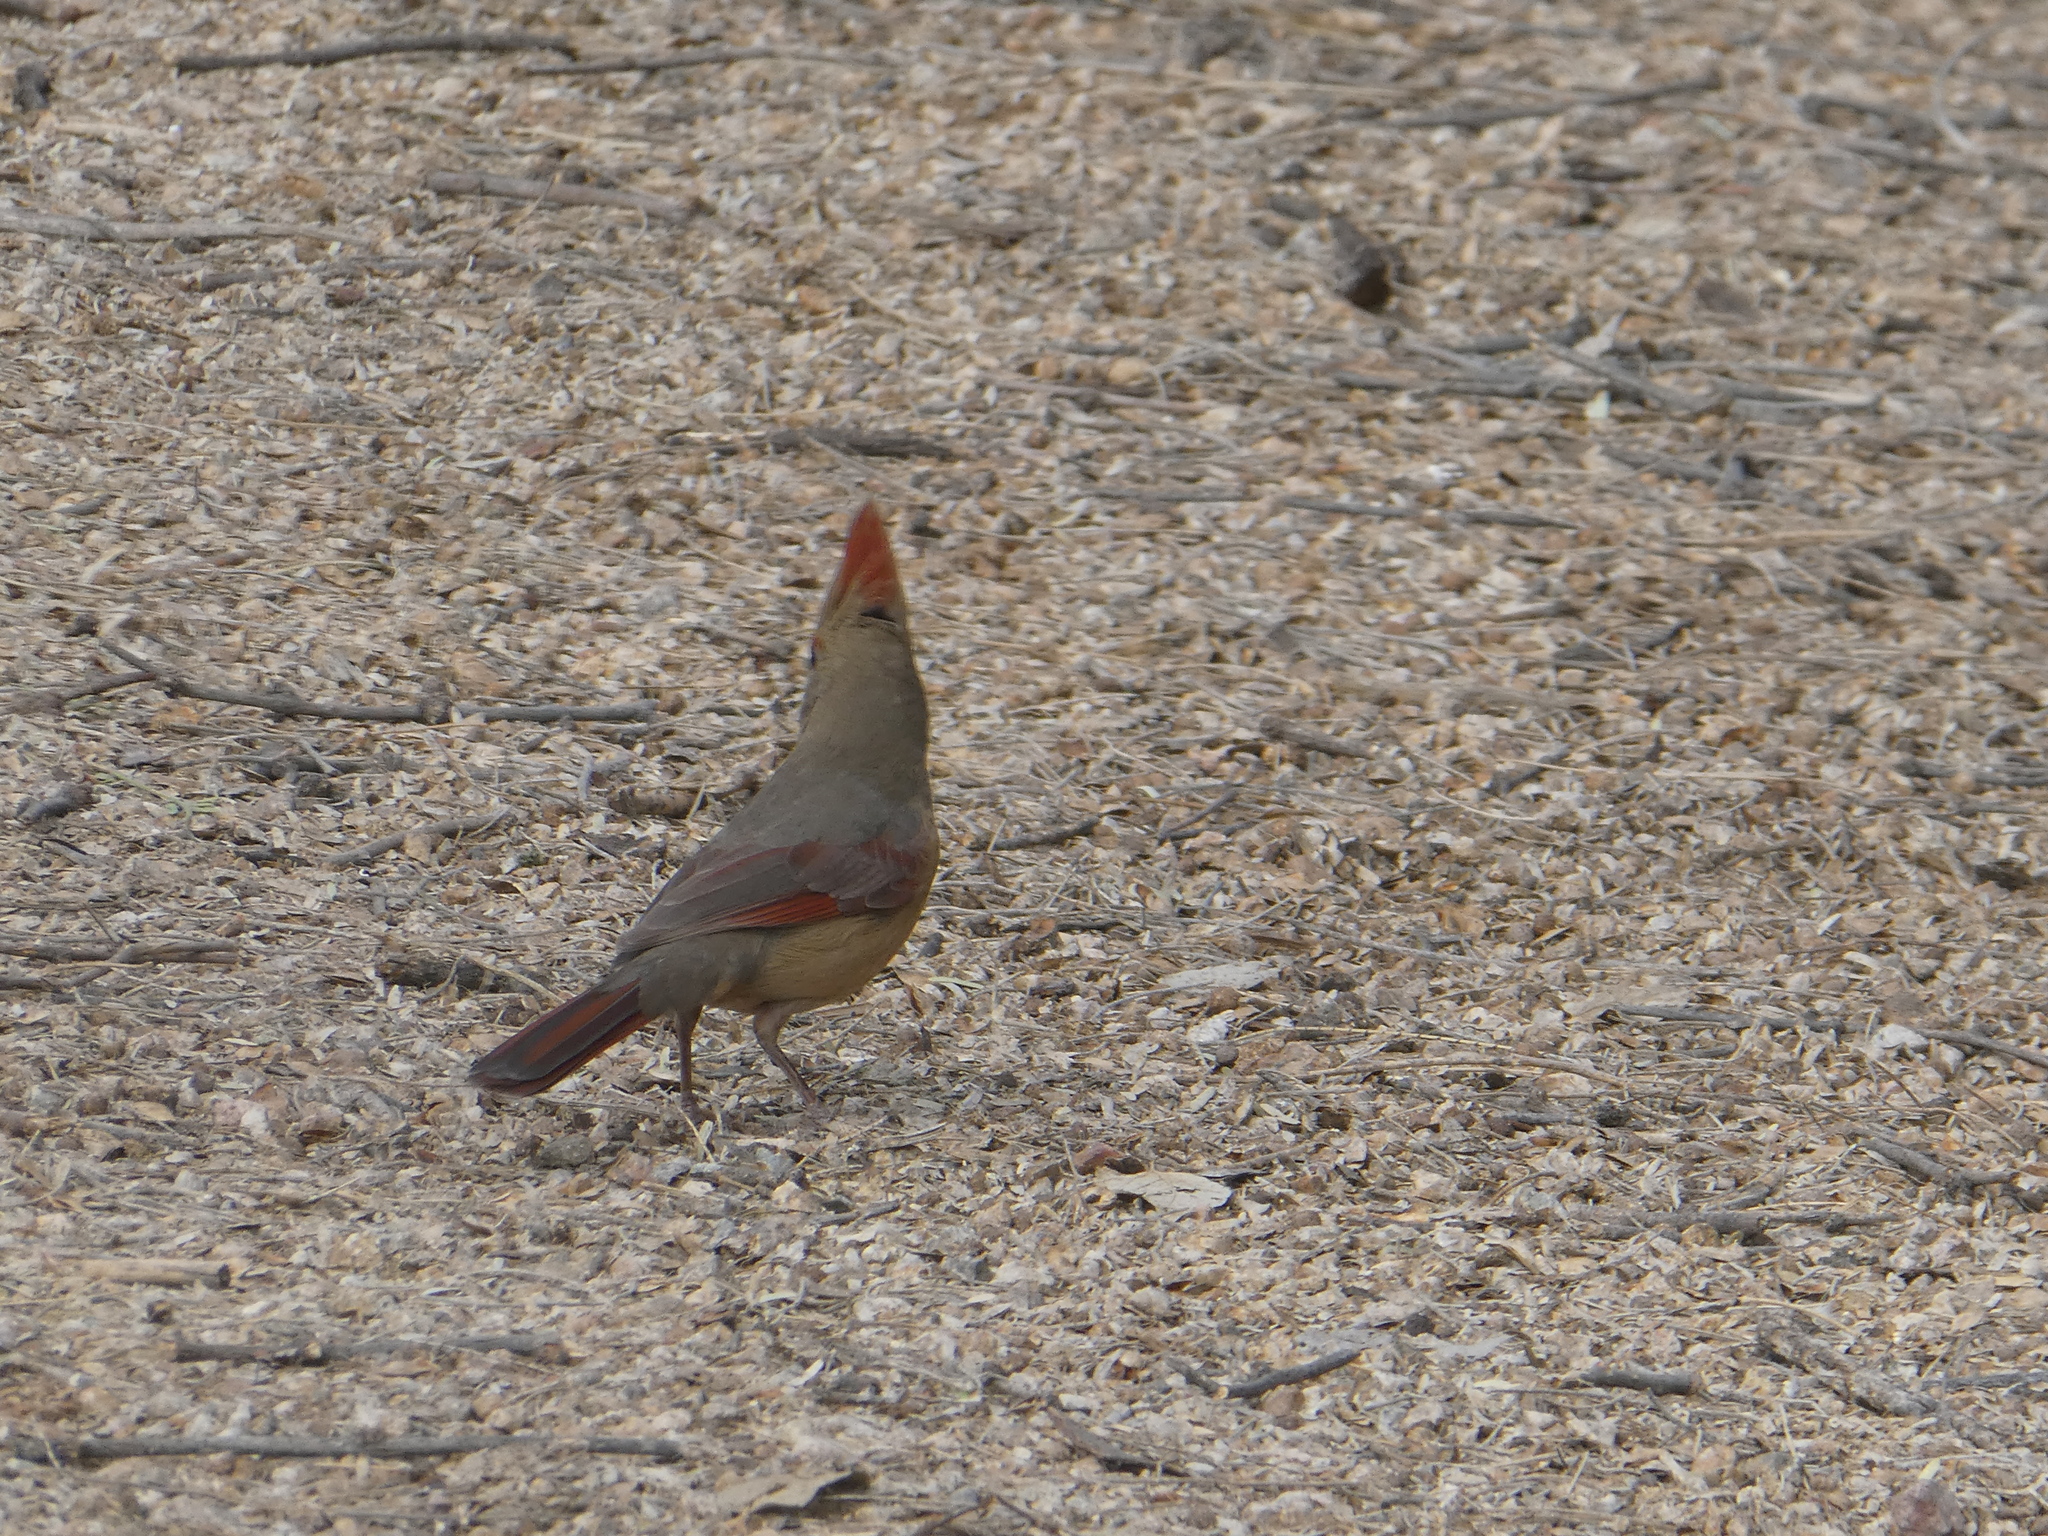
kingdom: Animalia
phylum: Chordata
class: Aves
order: Passeriformes
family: Cardinalidae
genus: Cardinalis
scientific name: Cardinalis cardinalis
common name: Northern cardinal
